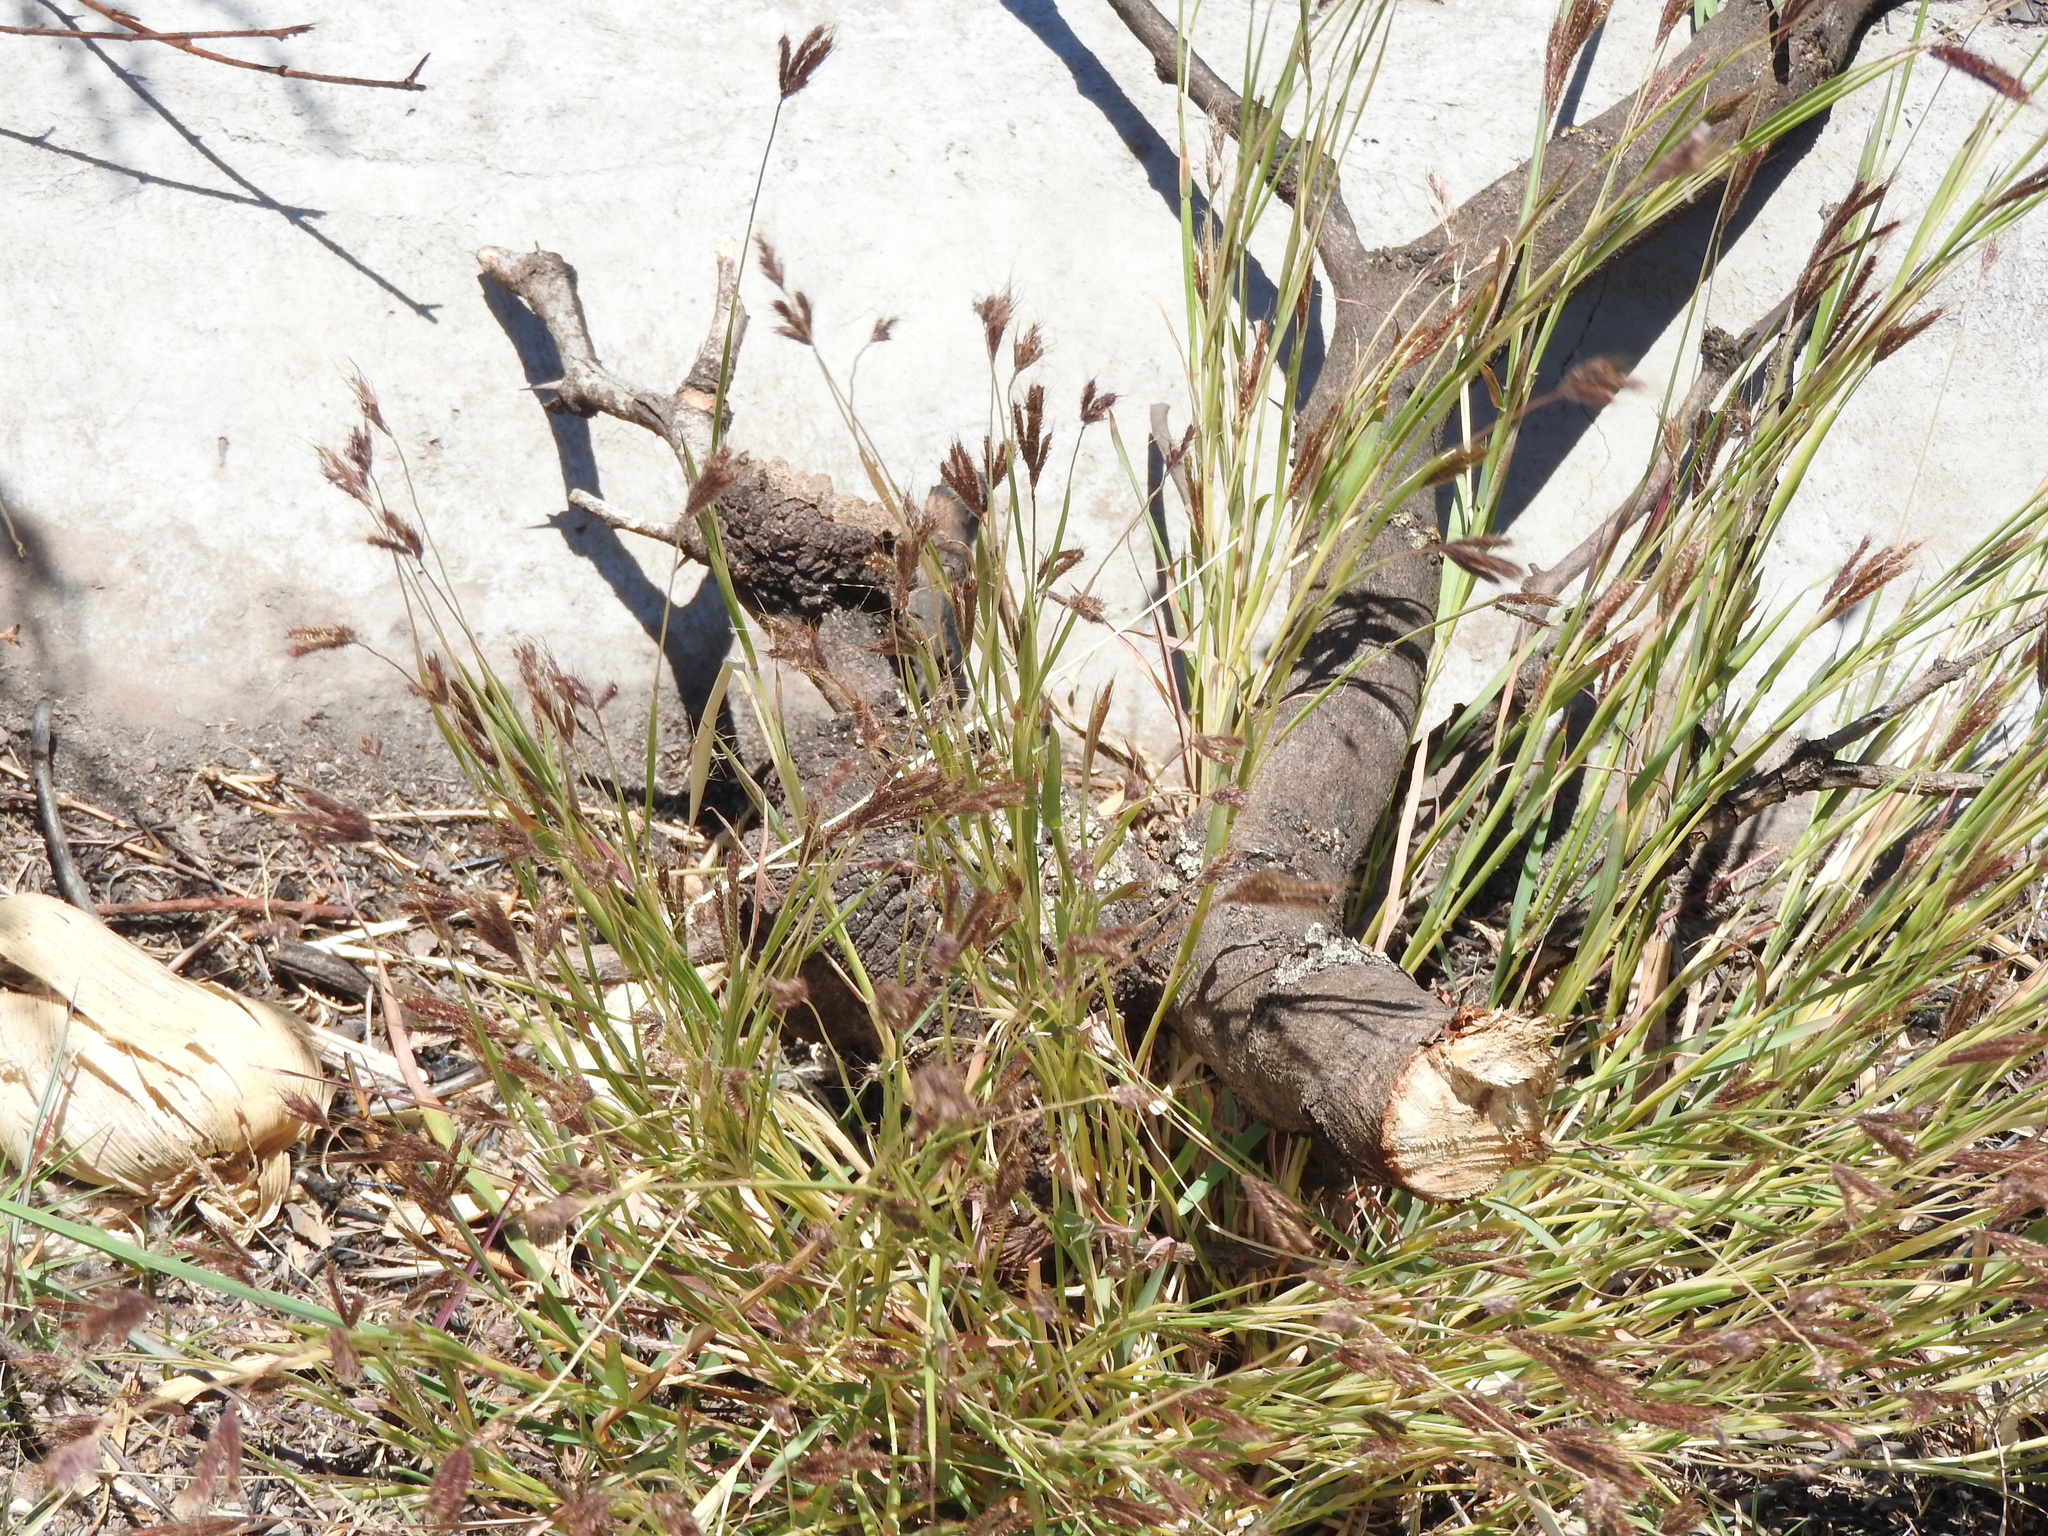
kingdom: Plantae
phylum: Tracheophyta
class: Liliopsida
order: Poales
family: Poaceae
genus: Chloris
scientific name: Chloris rufescens
